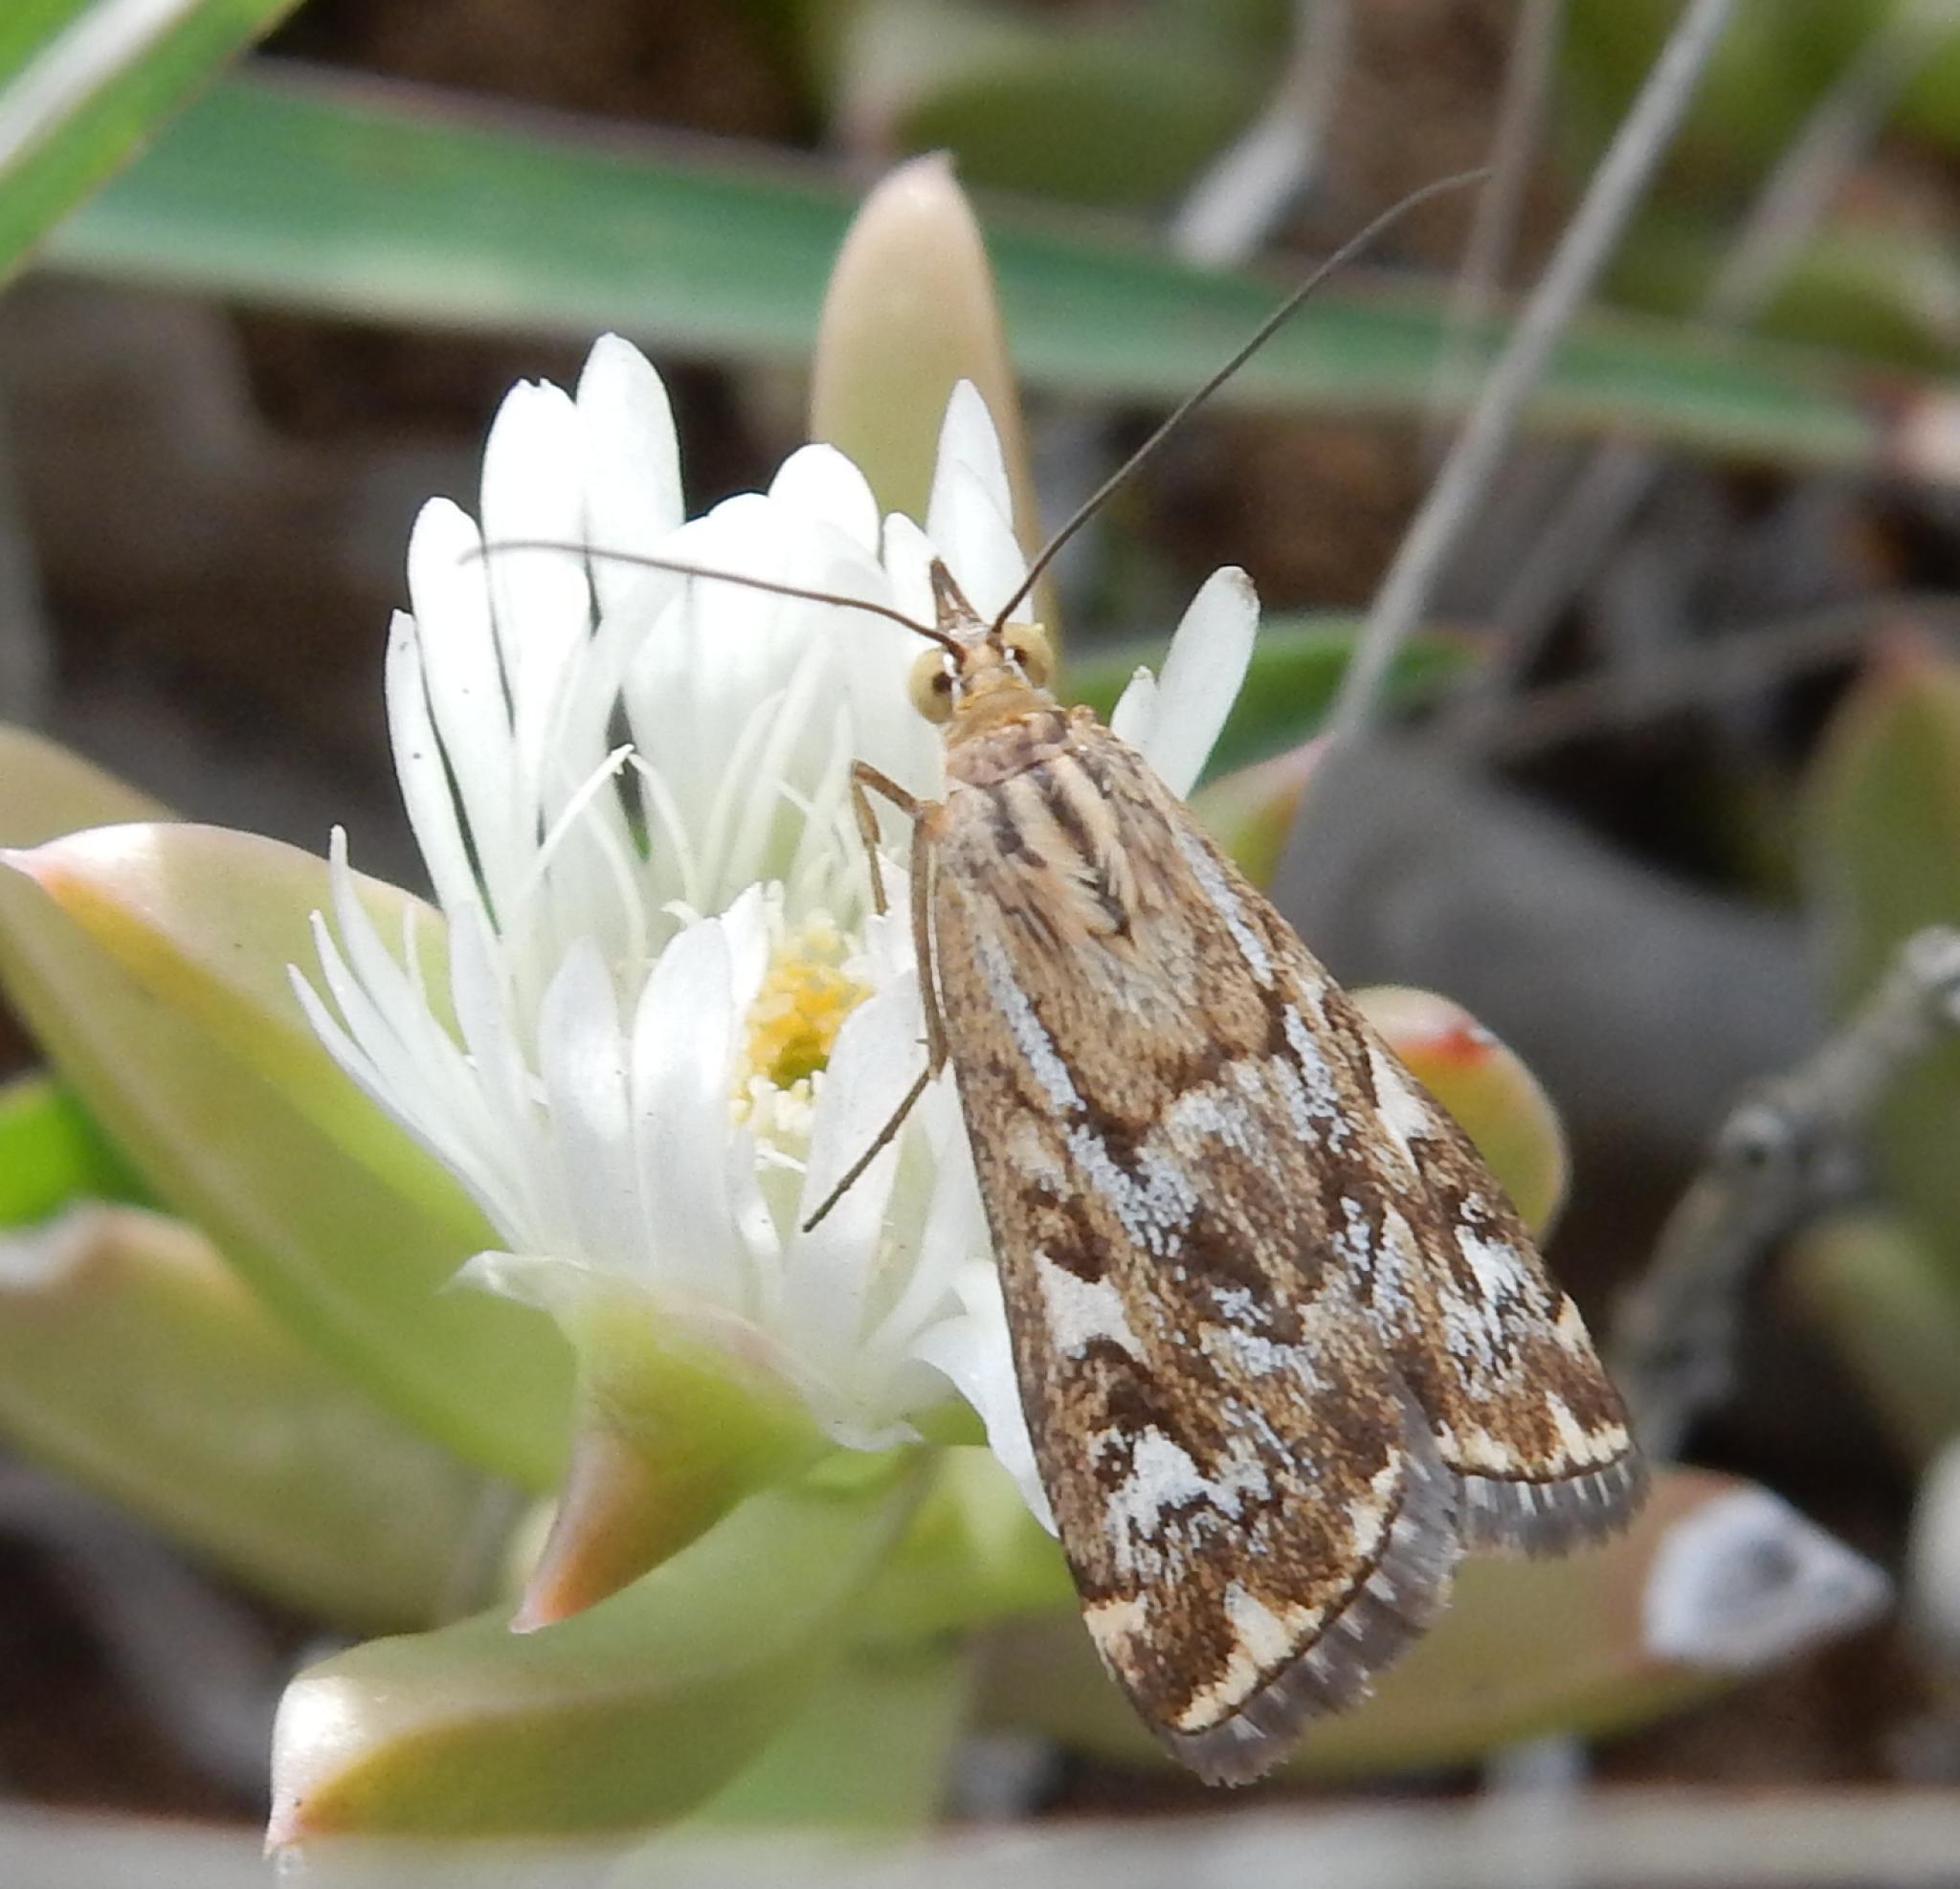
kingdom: Animalia
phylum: Arthropoda
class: Insecta
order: Lepidoptera
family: Crambidae
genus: Loxostege
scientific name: Loxostege frustalis
